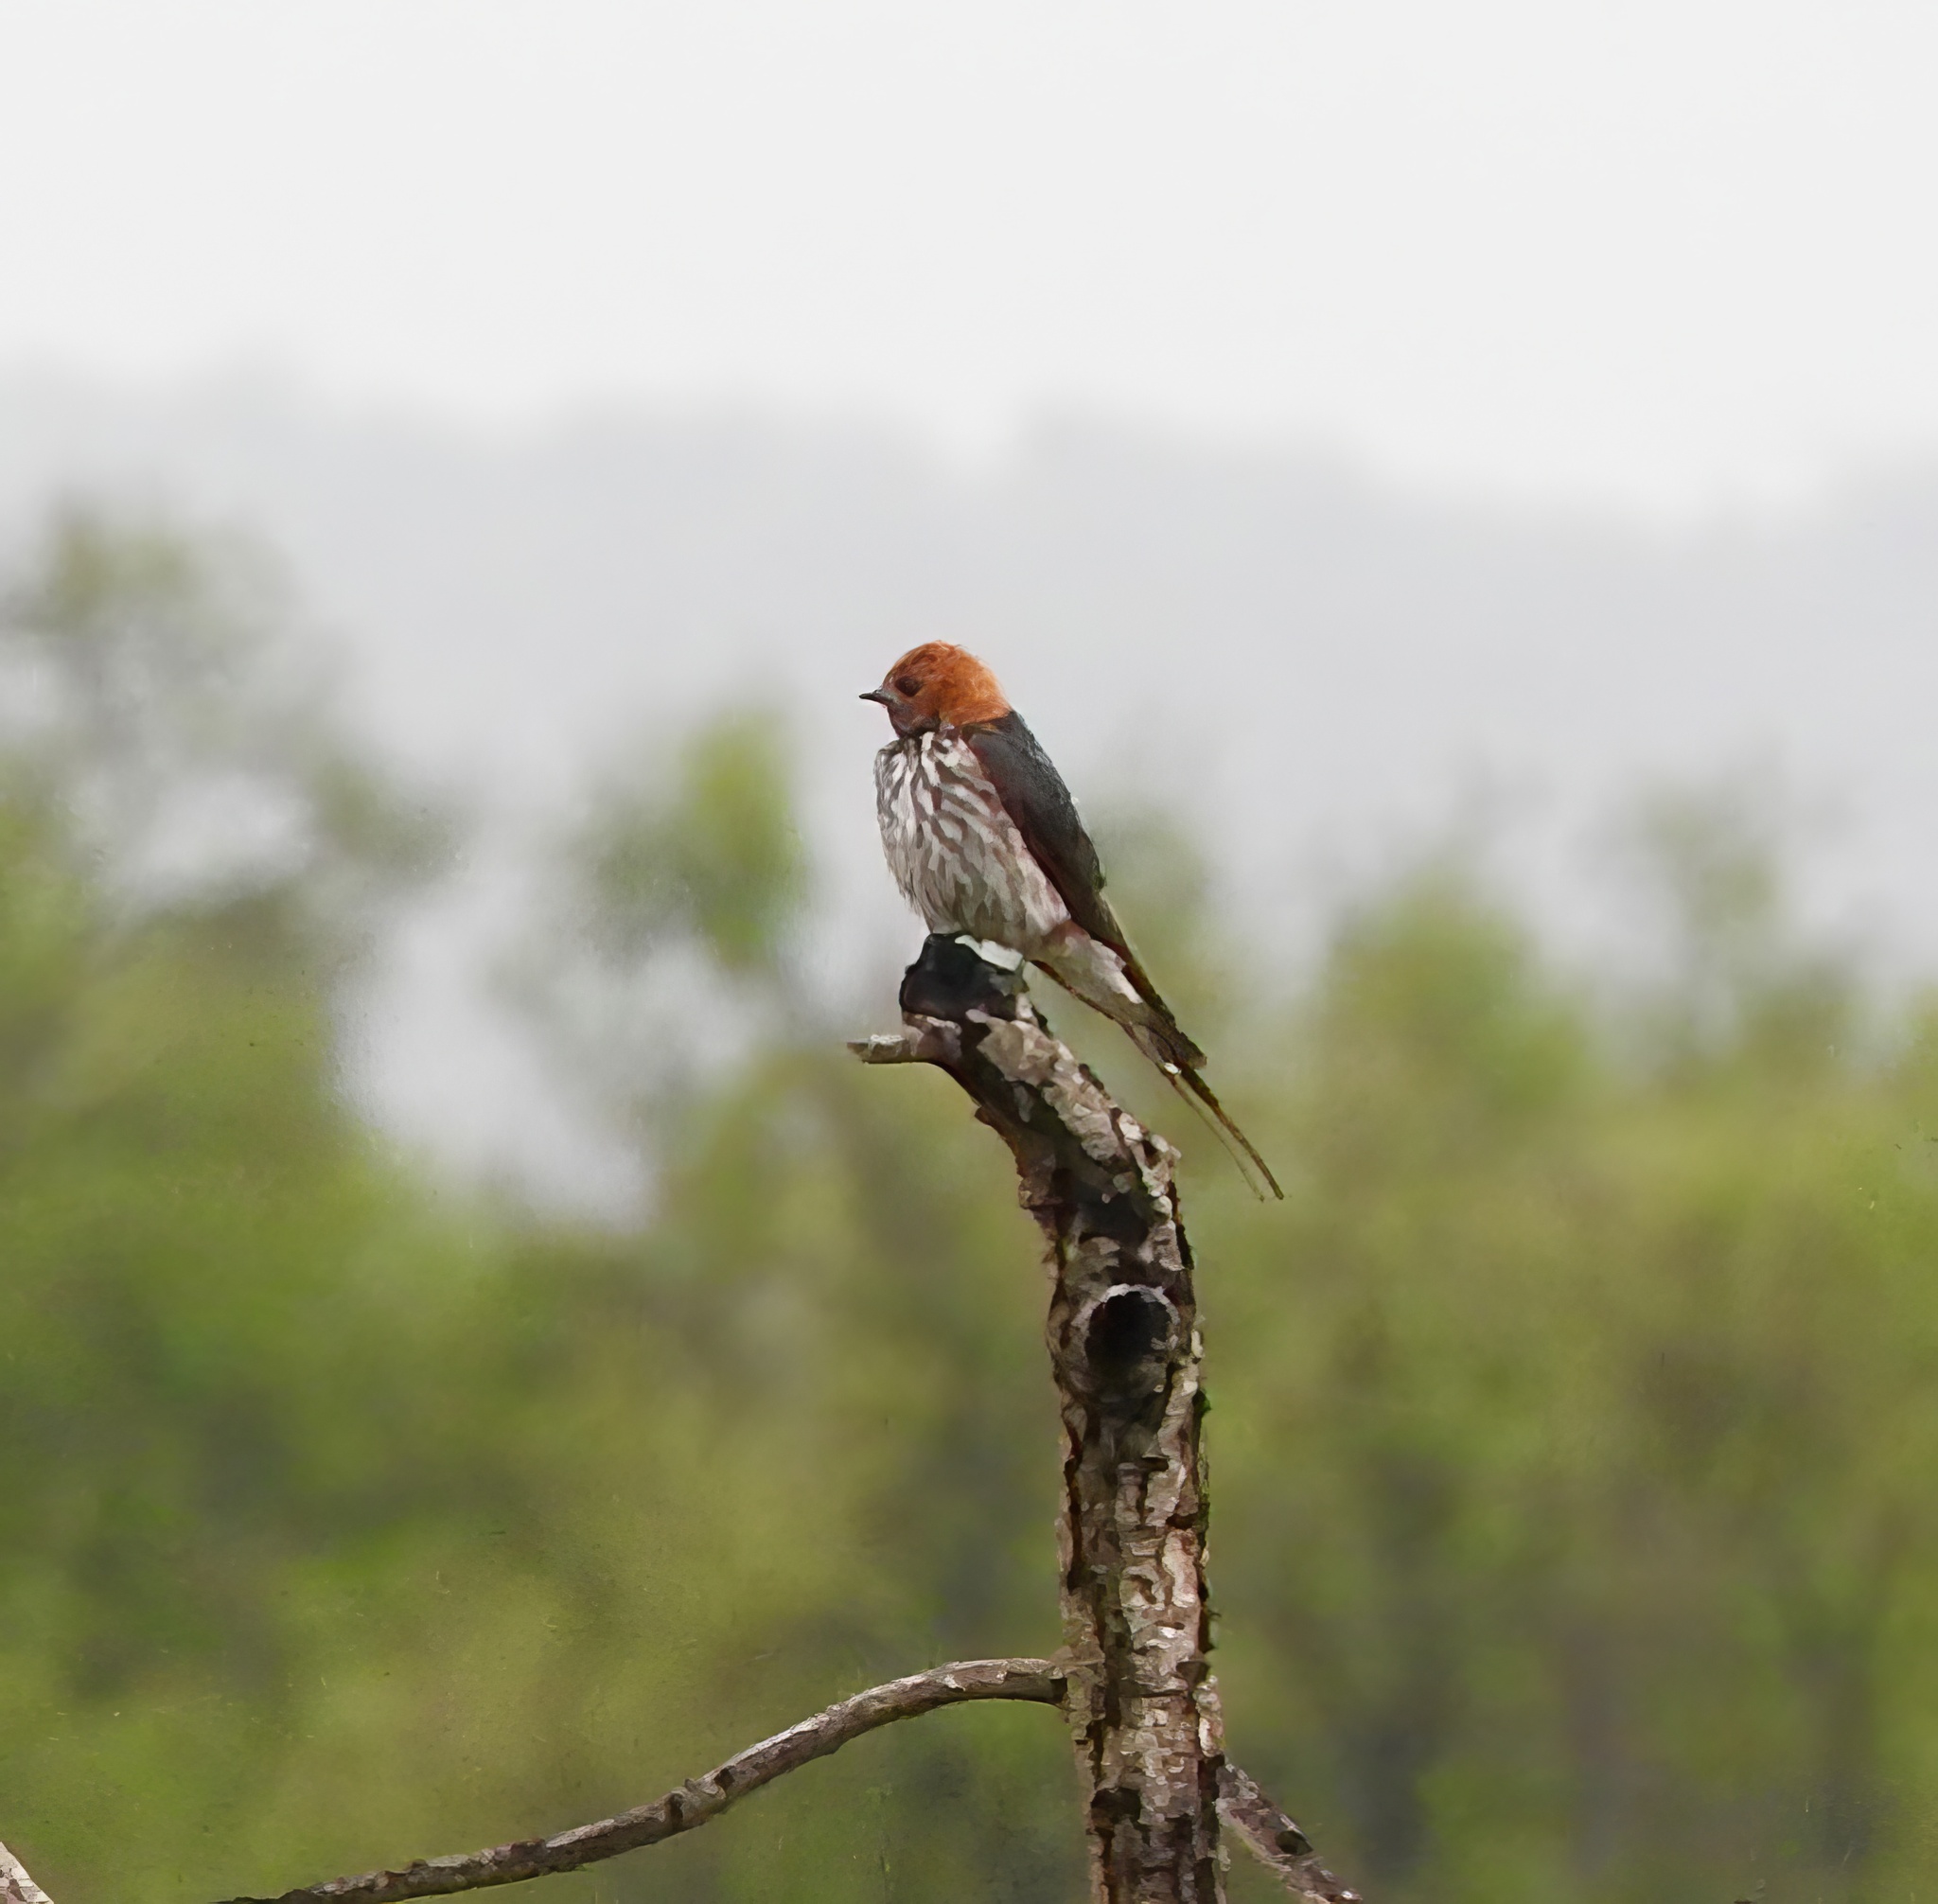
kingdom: Animalia
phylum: Chordata
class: Aves
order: Passeriformes
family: Hirundinidae
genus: Cecropis
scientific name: Cecropis abyssinica
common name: Lesser striped-swallow
